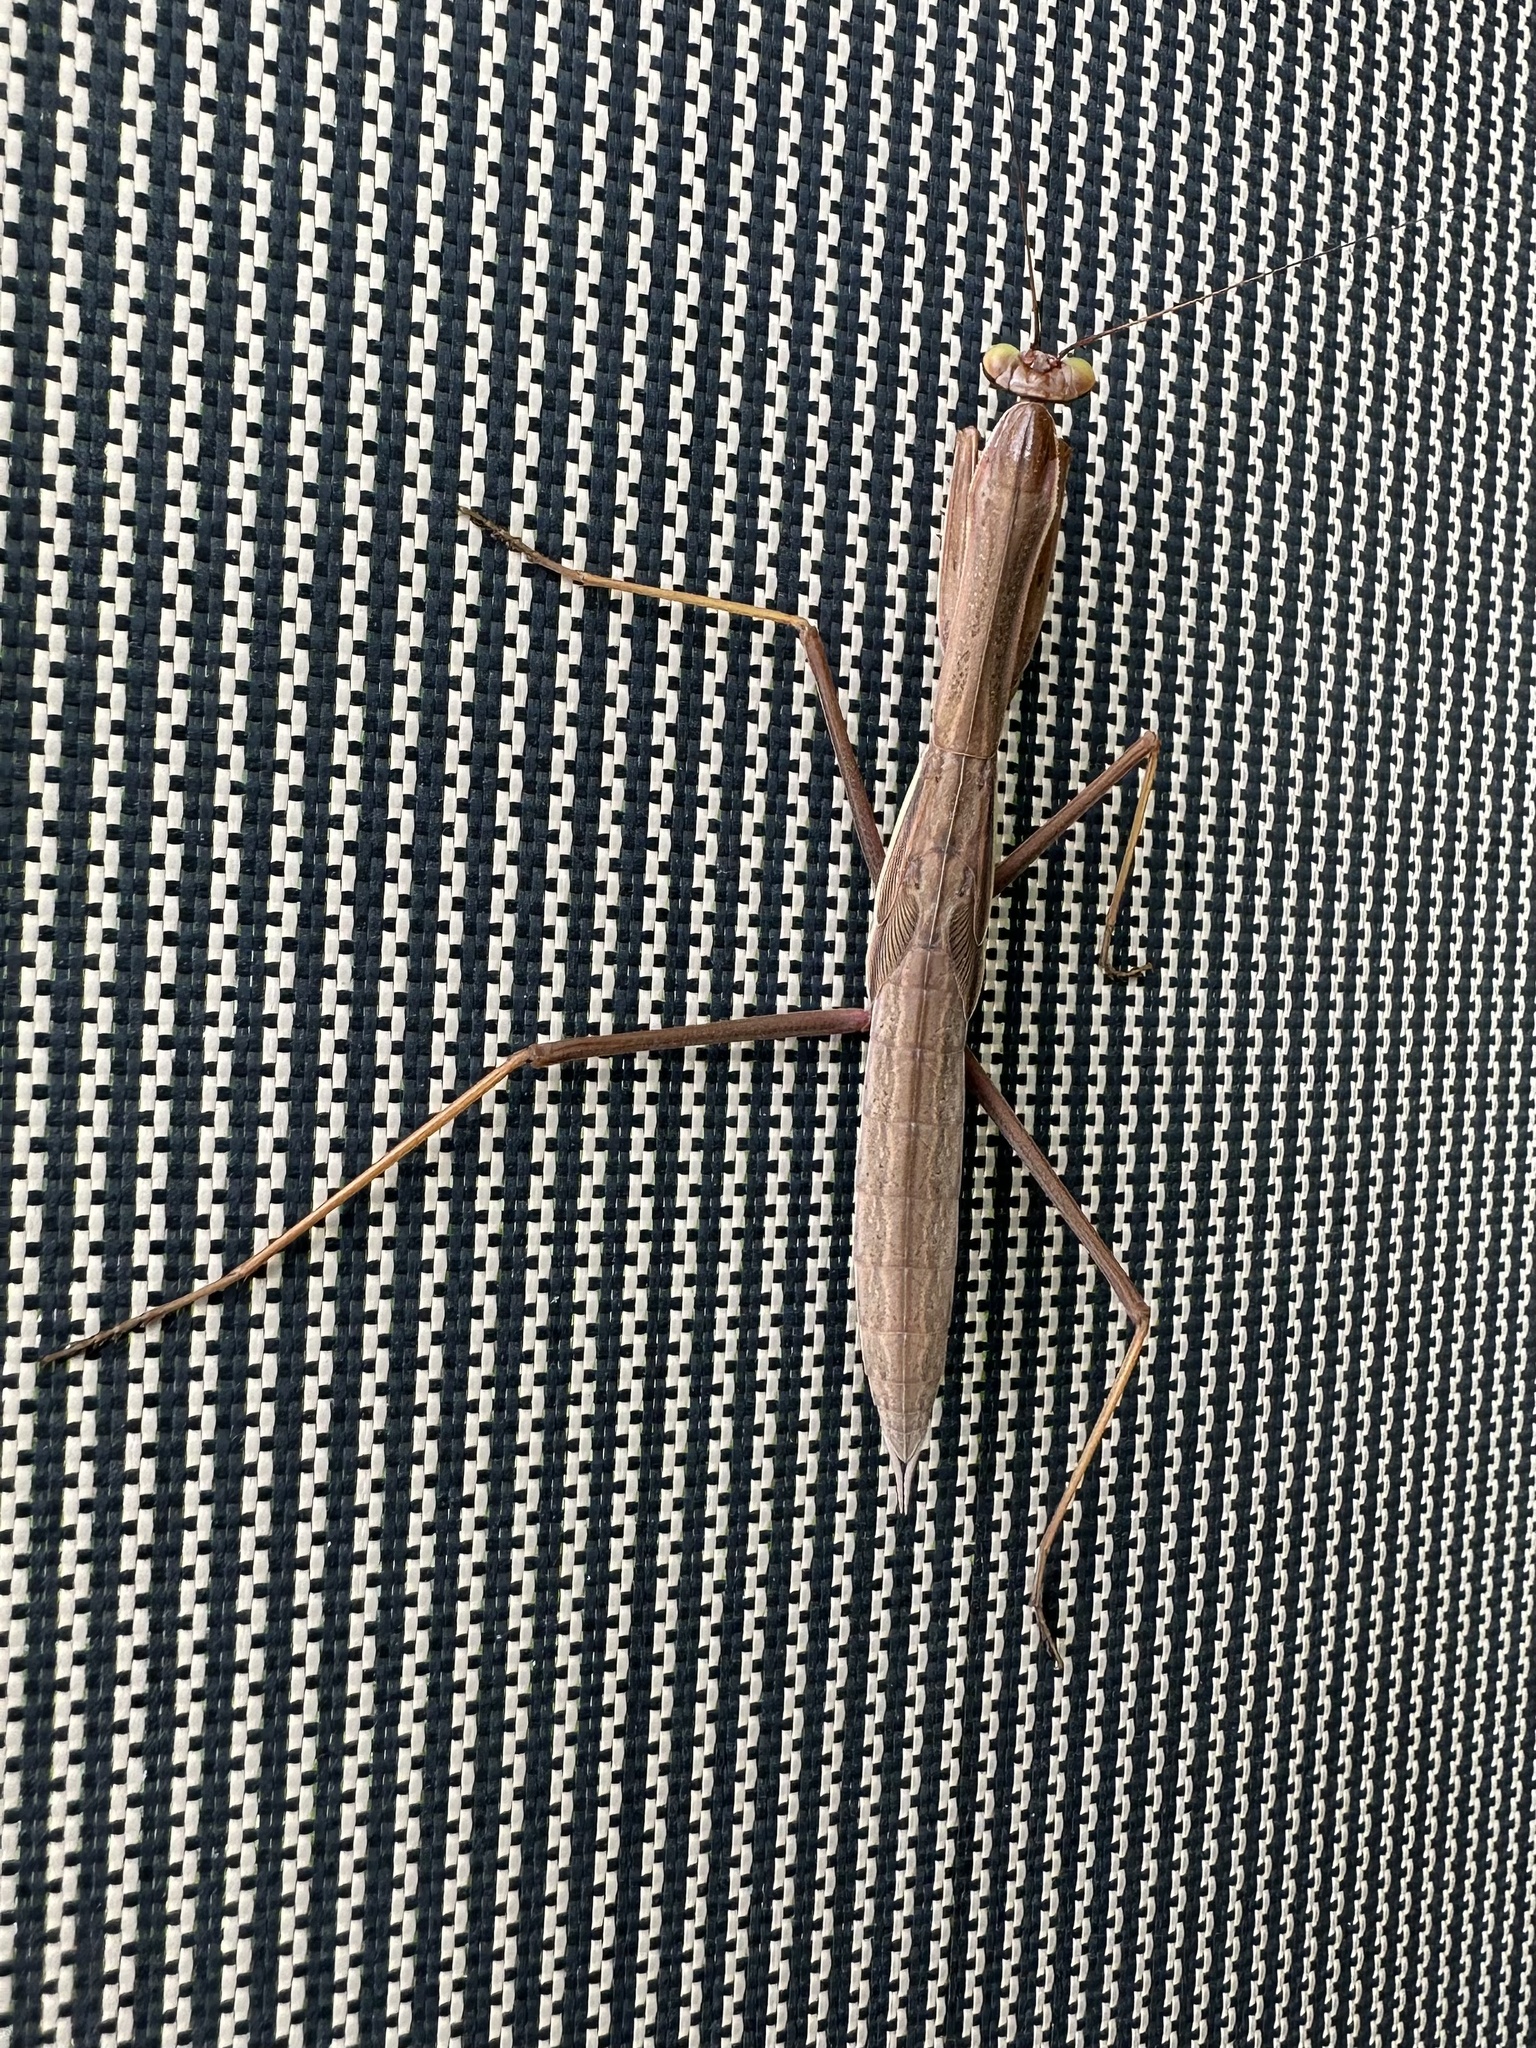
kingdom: Animalia
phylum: Arthropoda
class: Insecta
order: Mantodea
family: Mantidae
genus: Tenodera
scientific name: Tenodera sinensis
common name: Chinese mantis
